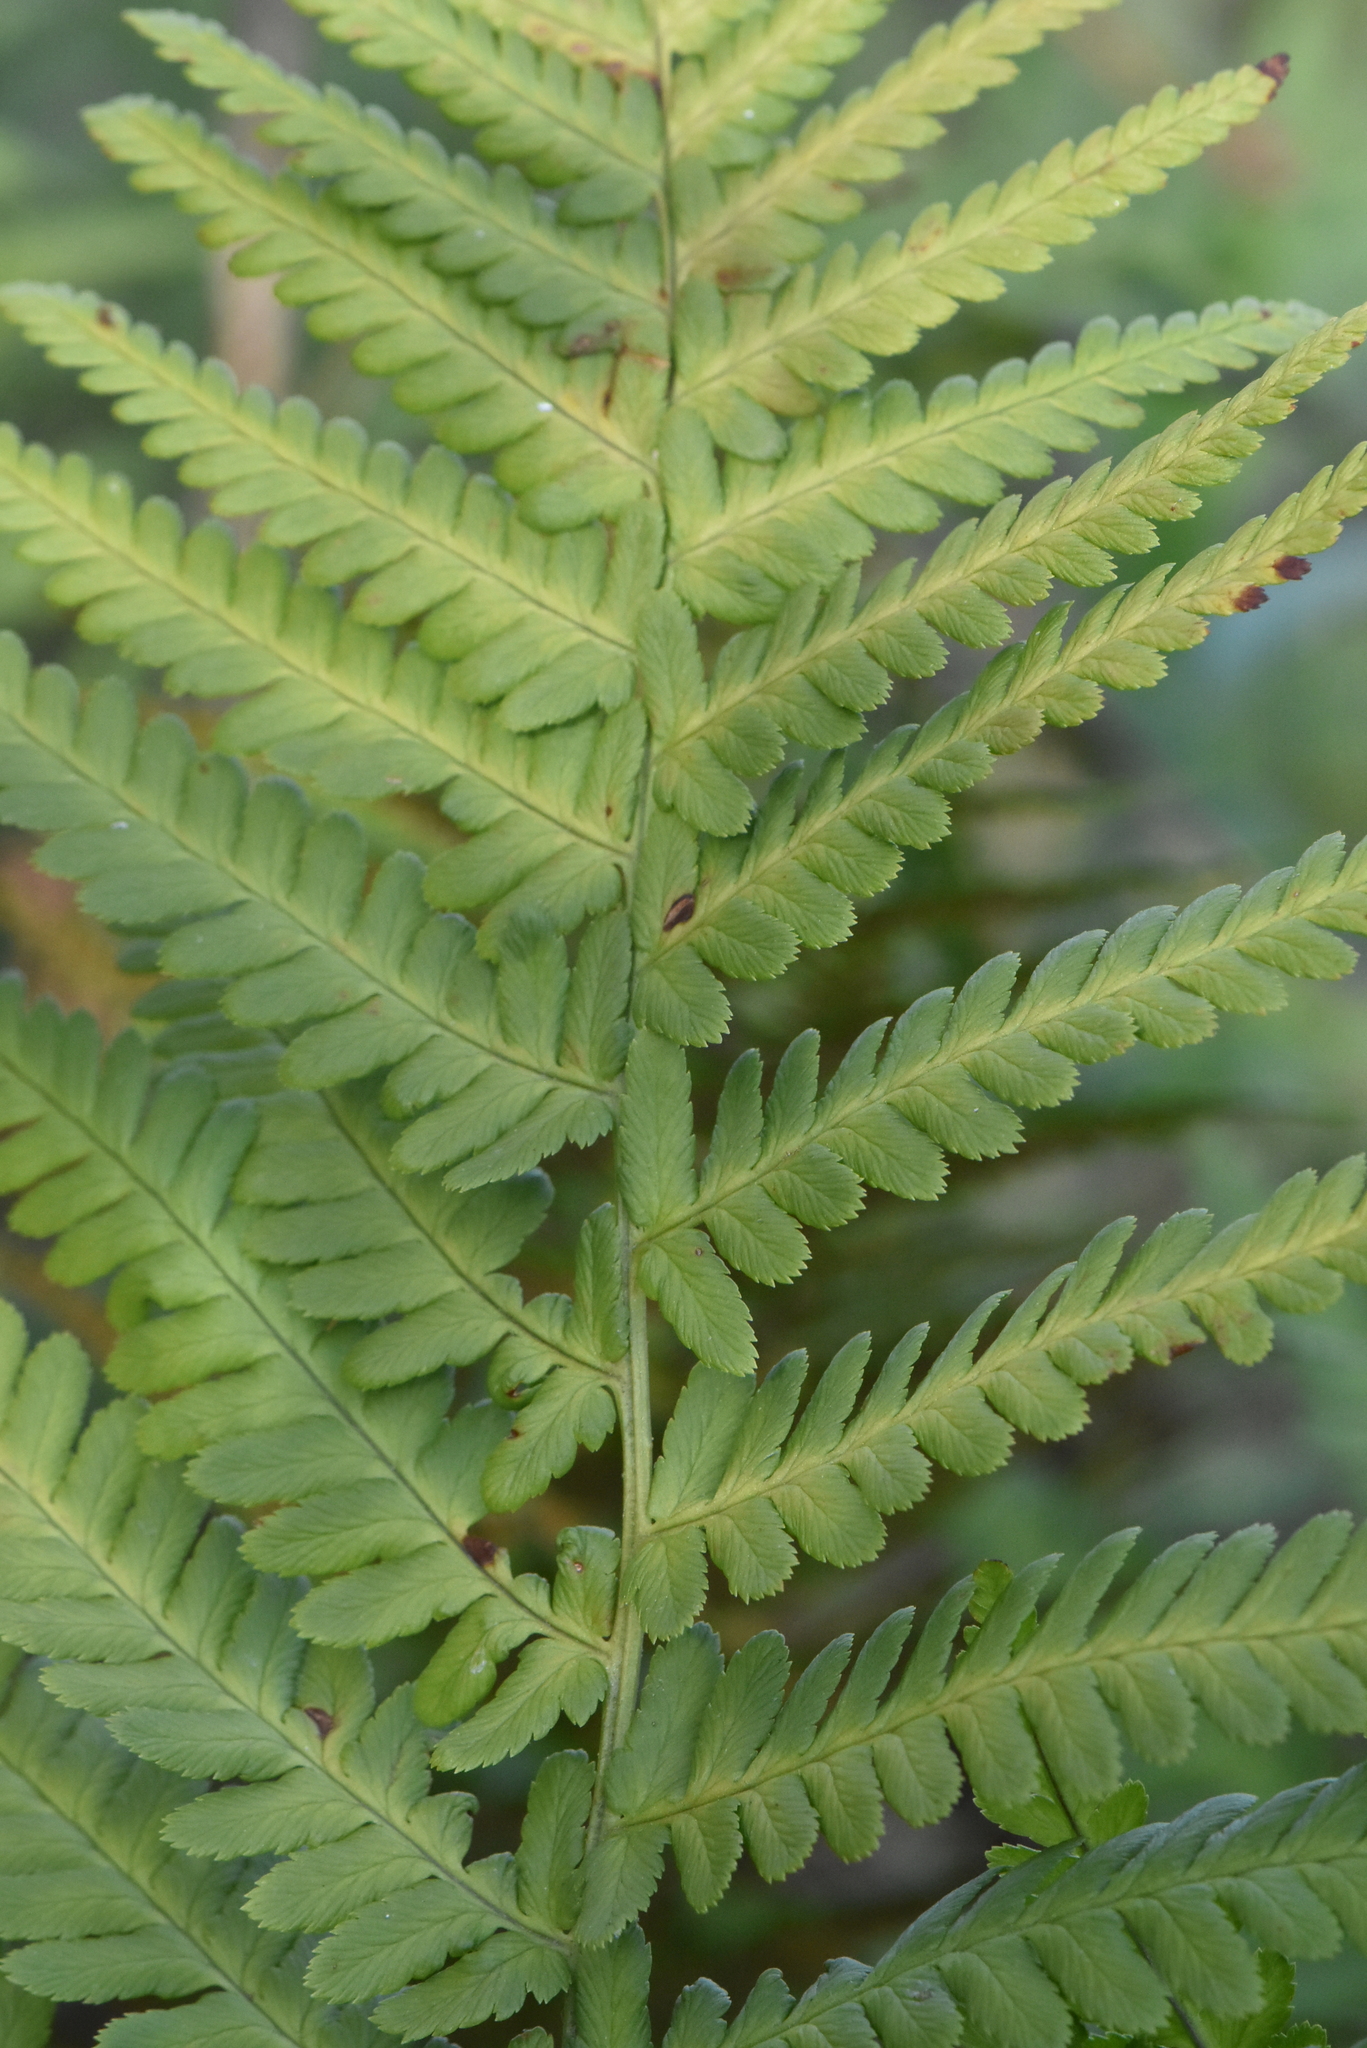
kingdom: Plantae
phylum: Tracheophyta
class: Polypodiopsida
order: Polypodiales
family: Dryopteridaceae
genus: Dryopteris
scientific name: Dryopteris filix-mas
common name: Male fern
